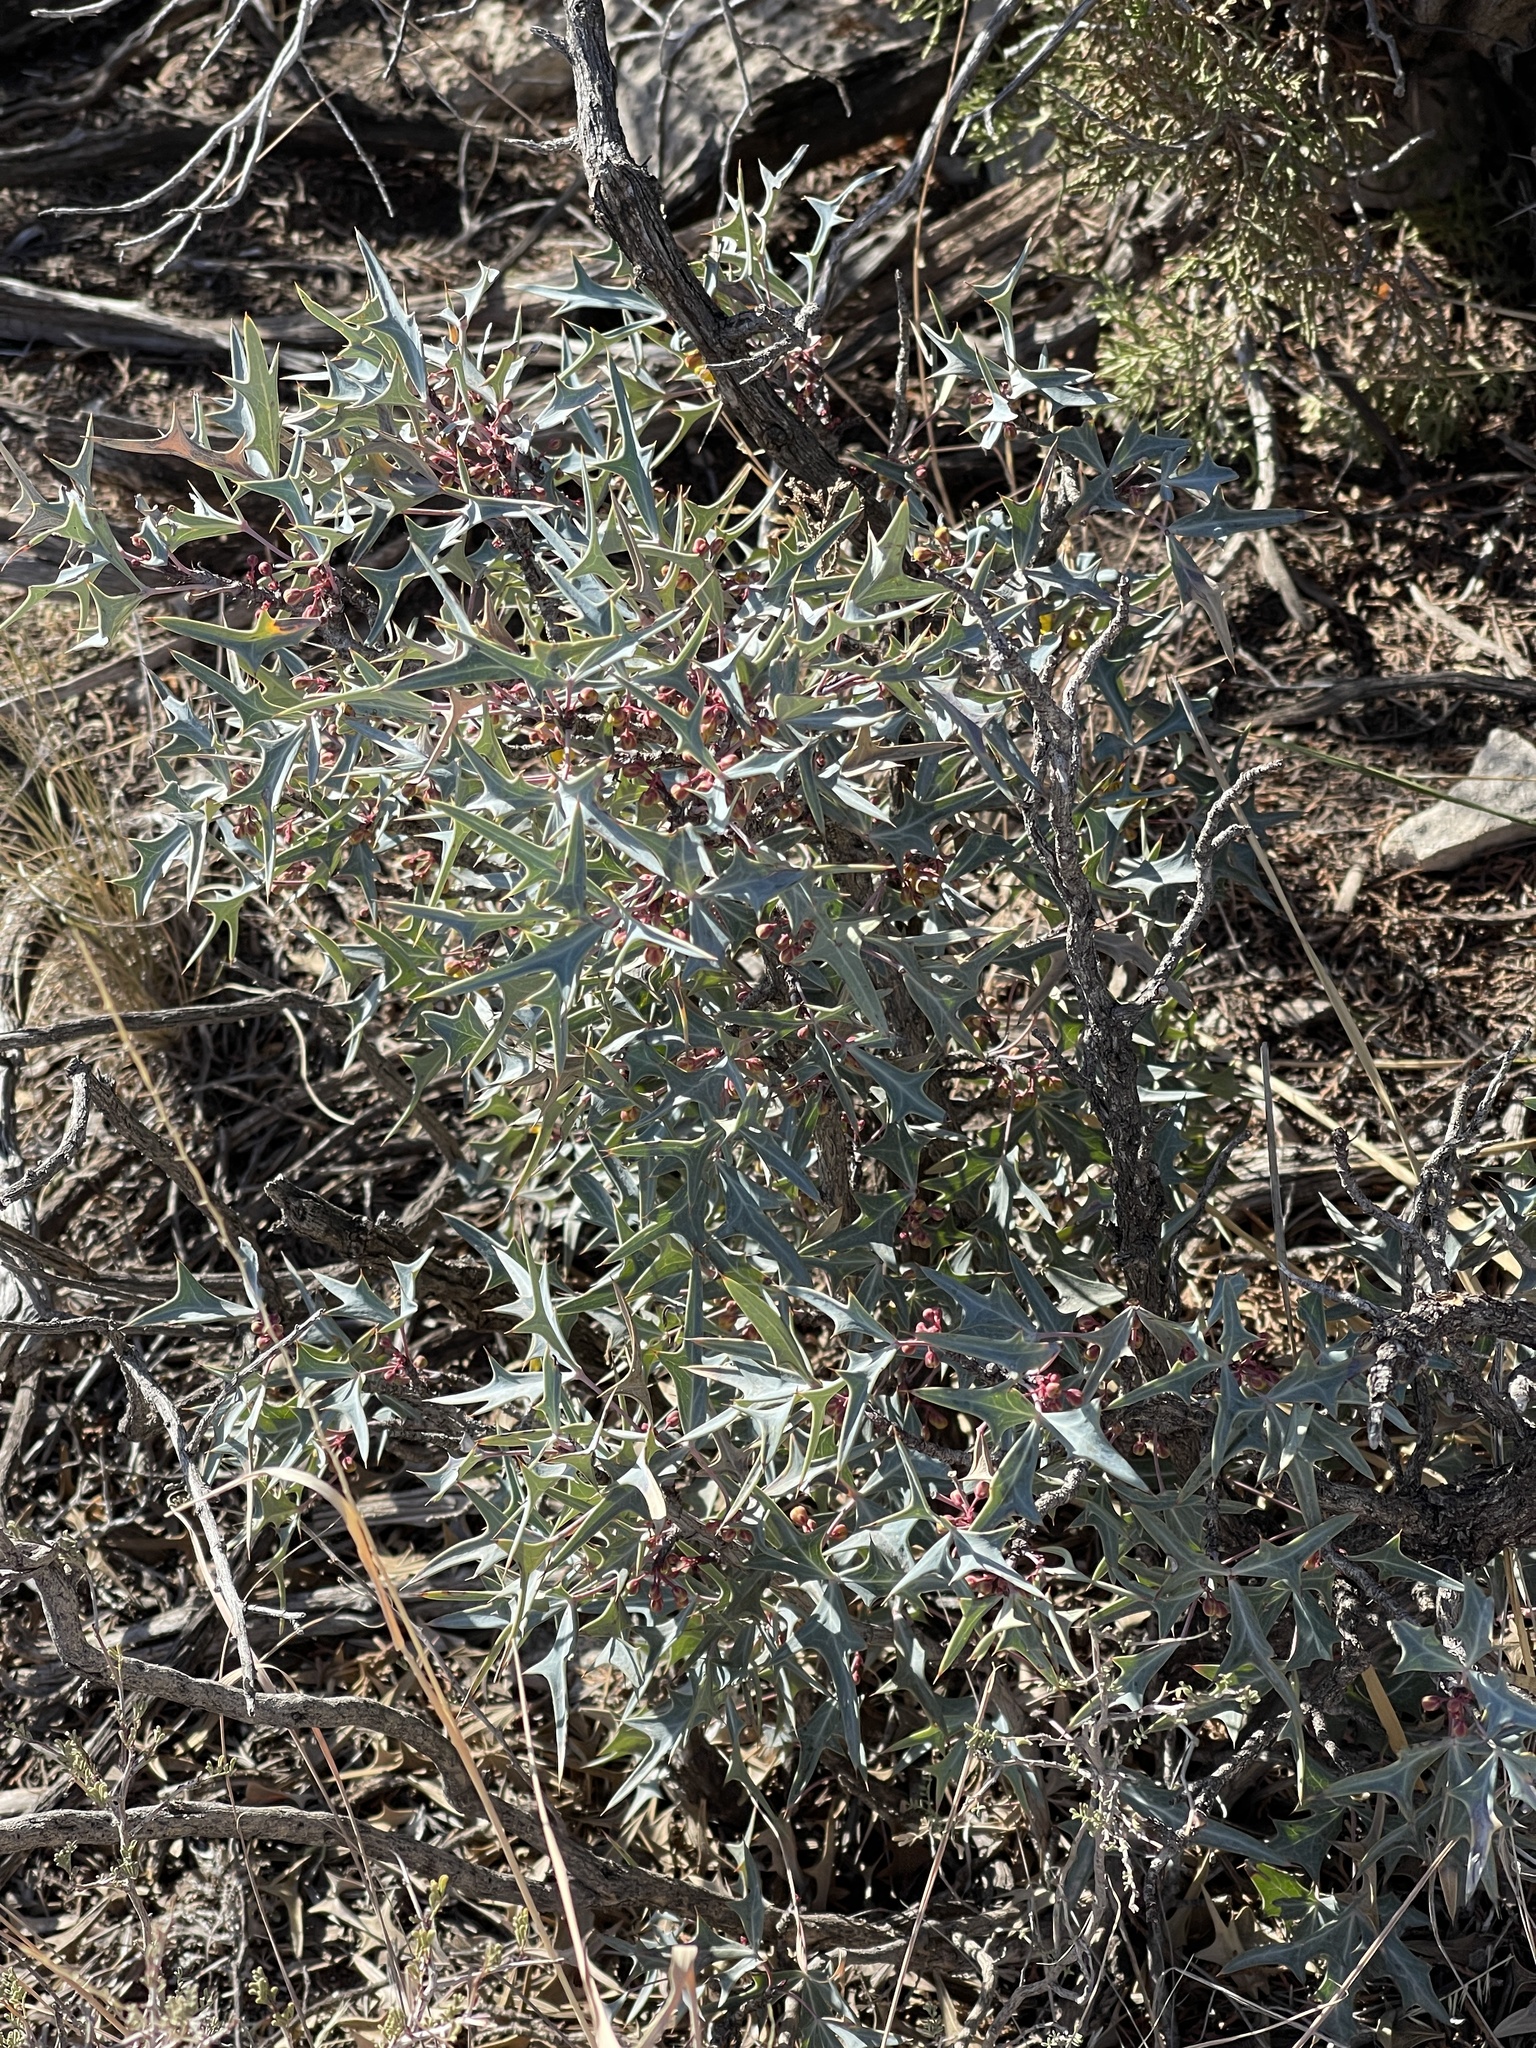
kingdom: Plantae
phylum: Tracheophyta
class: Magnoliopsida
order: Ranunculales
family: Berberidaceae
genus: Alloberberis
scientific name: Alloberberis trifoliolata
